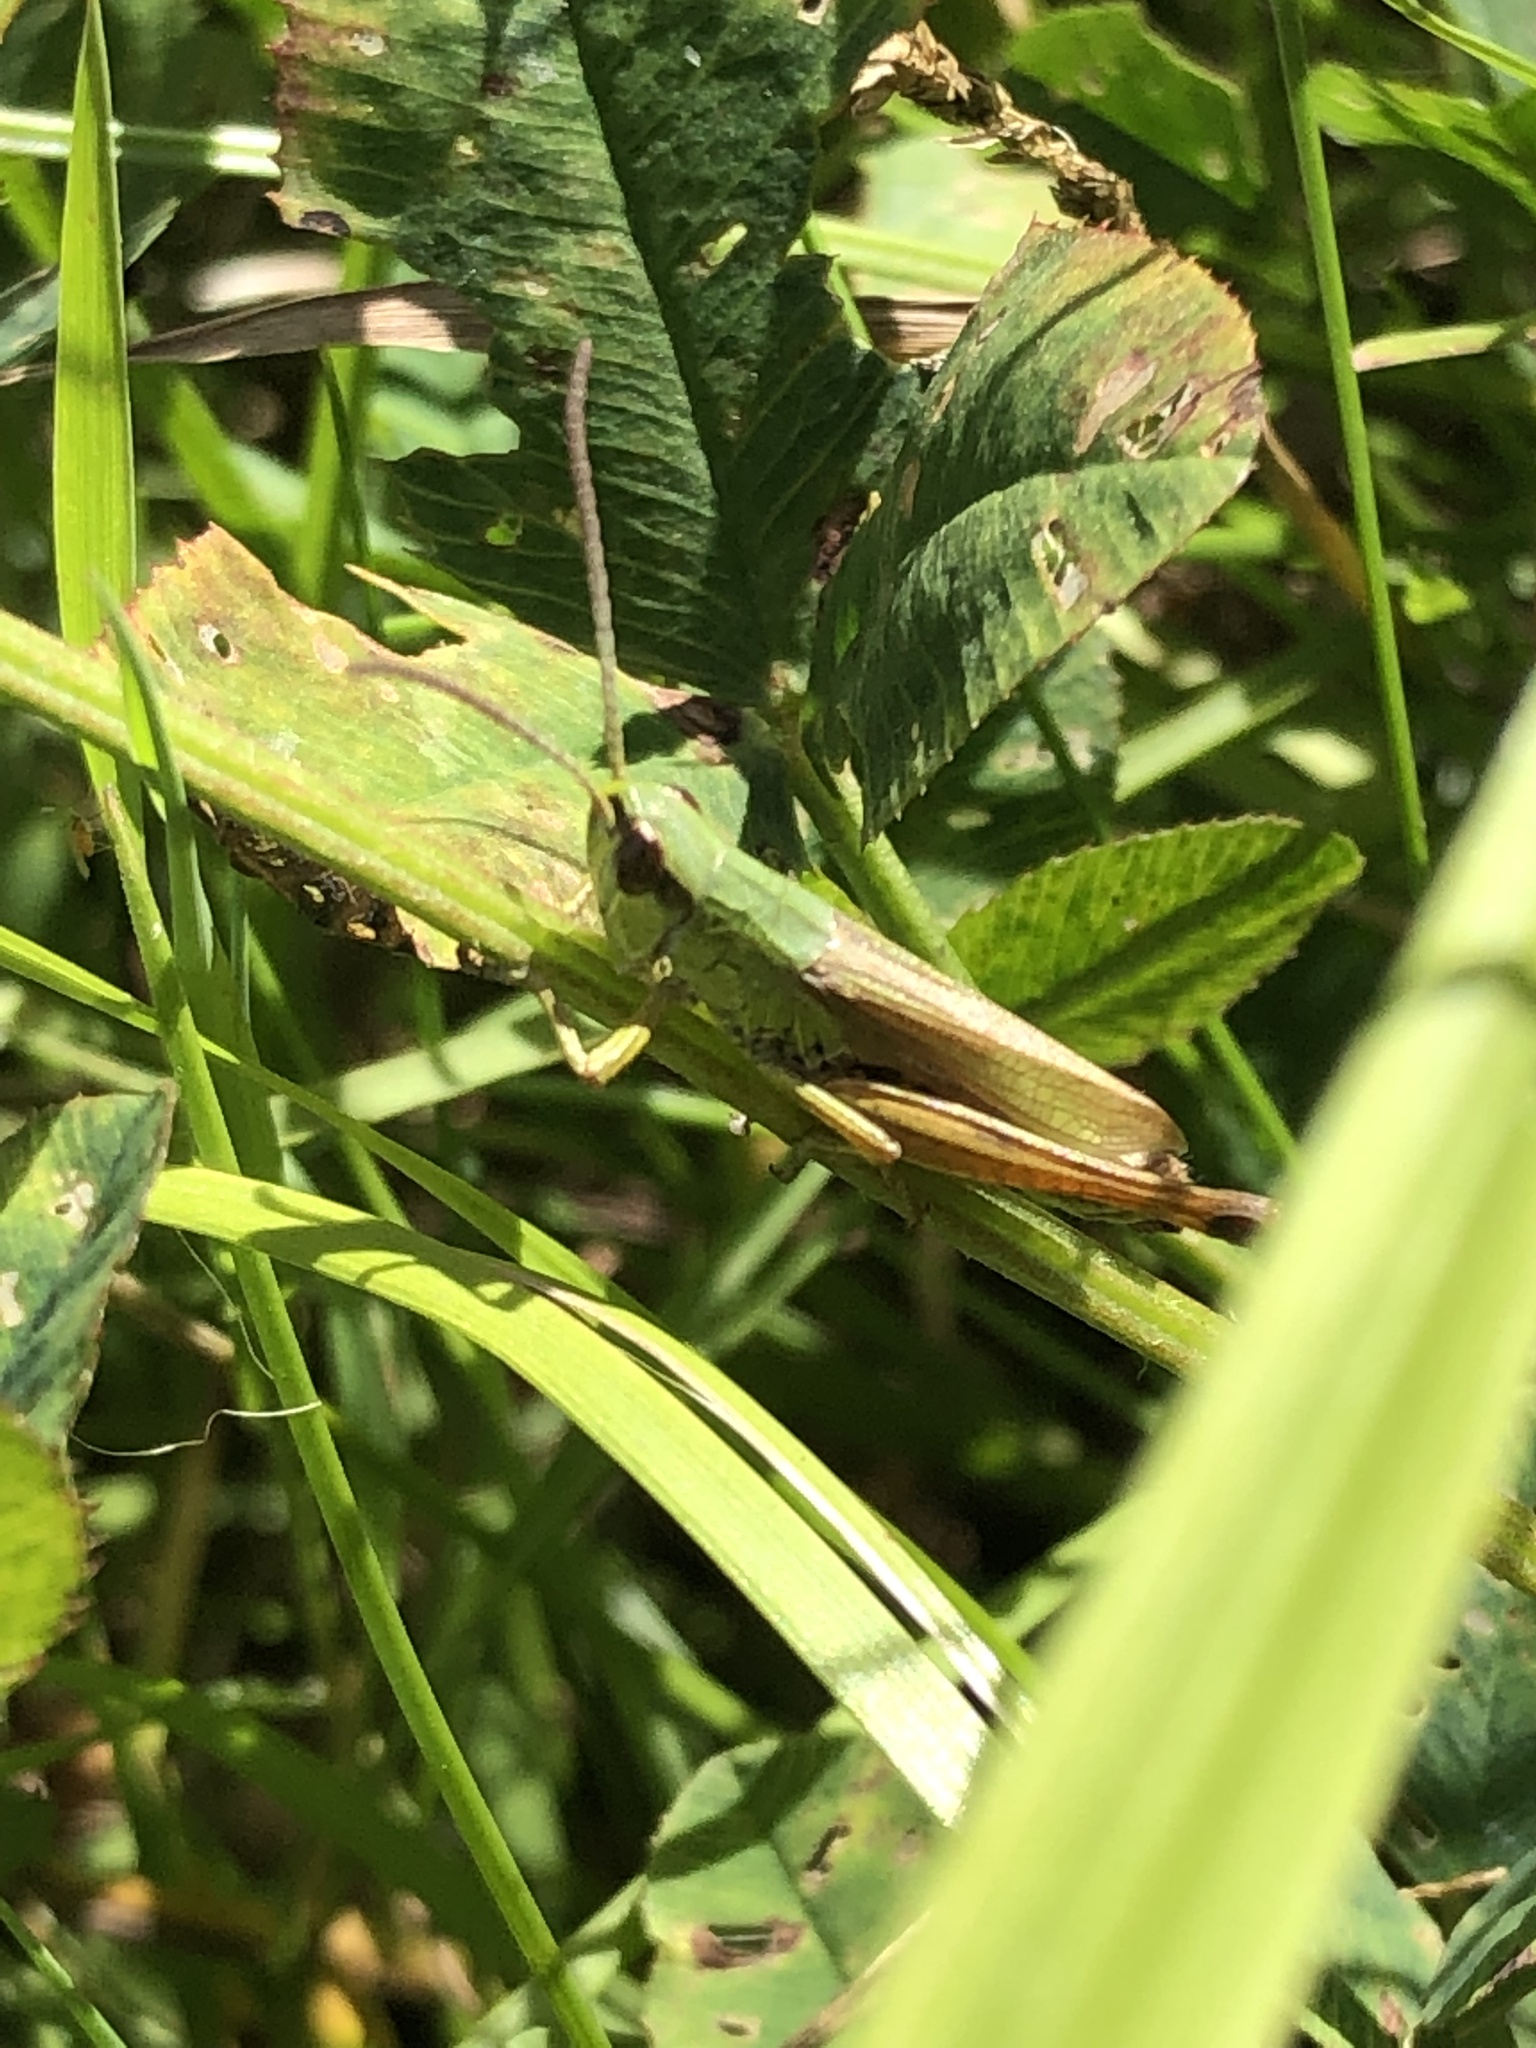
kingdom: Animalia
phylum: Arthropoda
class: Insecta
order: Orthoptera
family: Acrididae
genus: Pseudochorthippus
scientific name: Pseudochorthippus parallelus
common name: Meadow grasshopper
